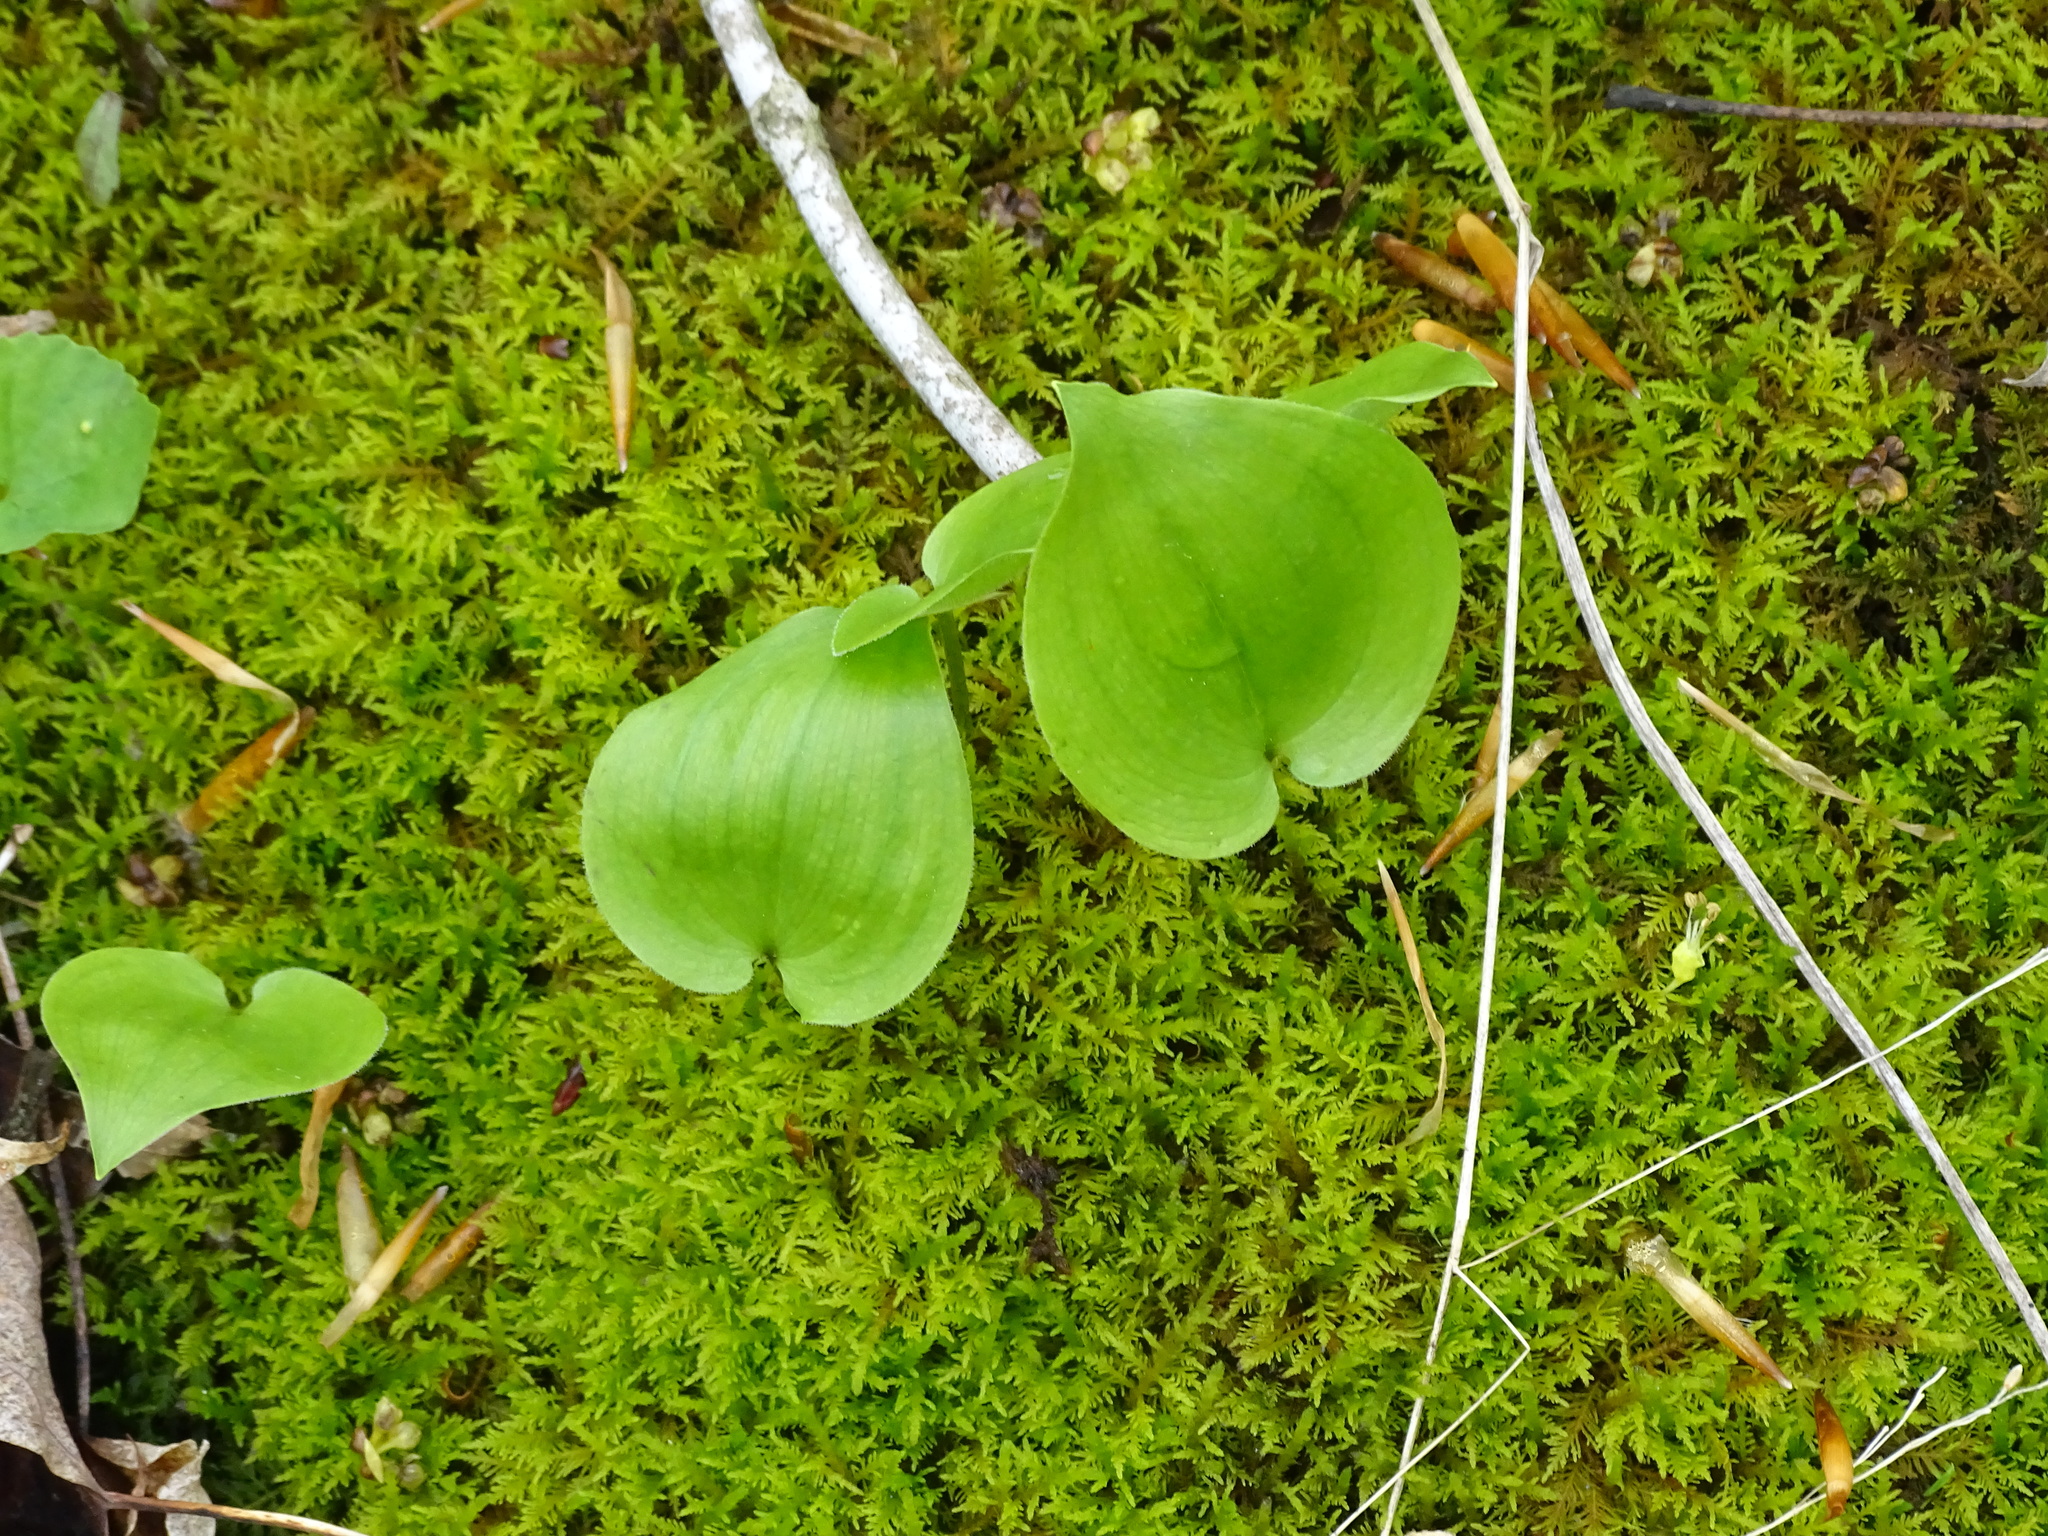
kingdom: Plantae
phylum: Tracheophyta
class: Liliopsida
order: Asparagales
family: Asparagaceae
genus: Maianthemum
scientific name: Maianthemum canadense
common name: False lily-of-the-valley
